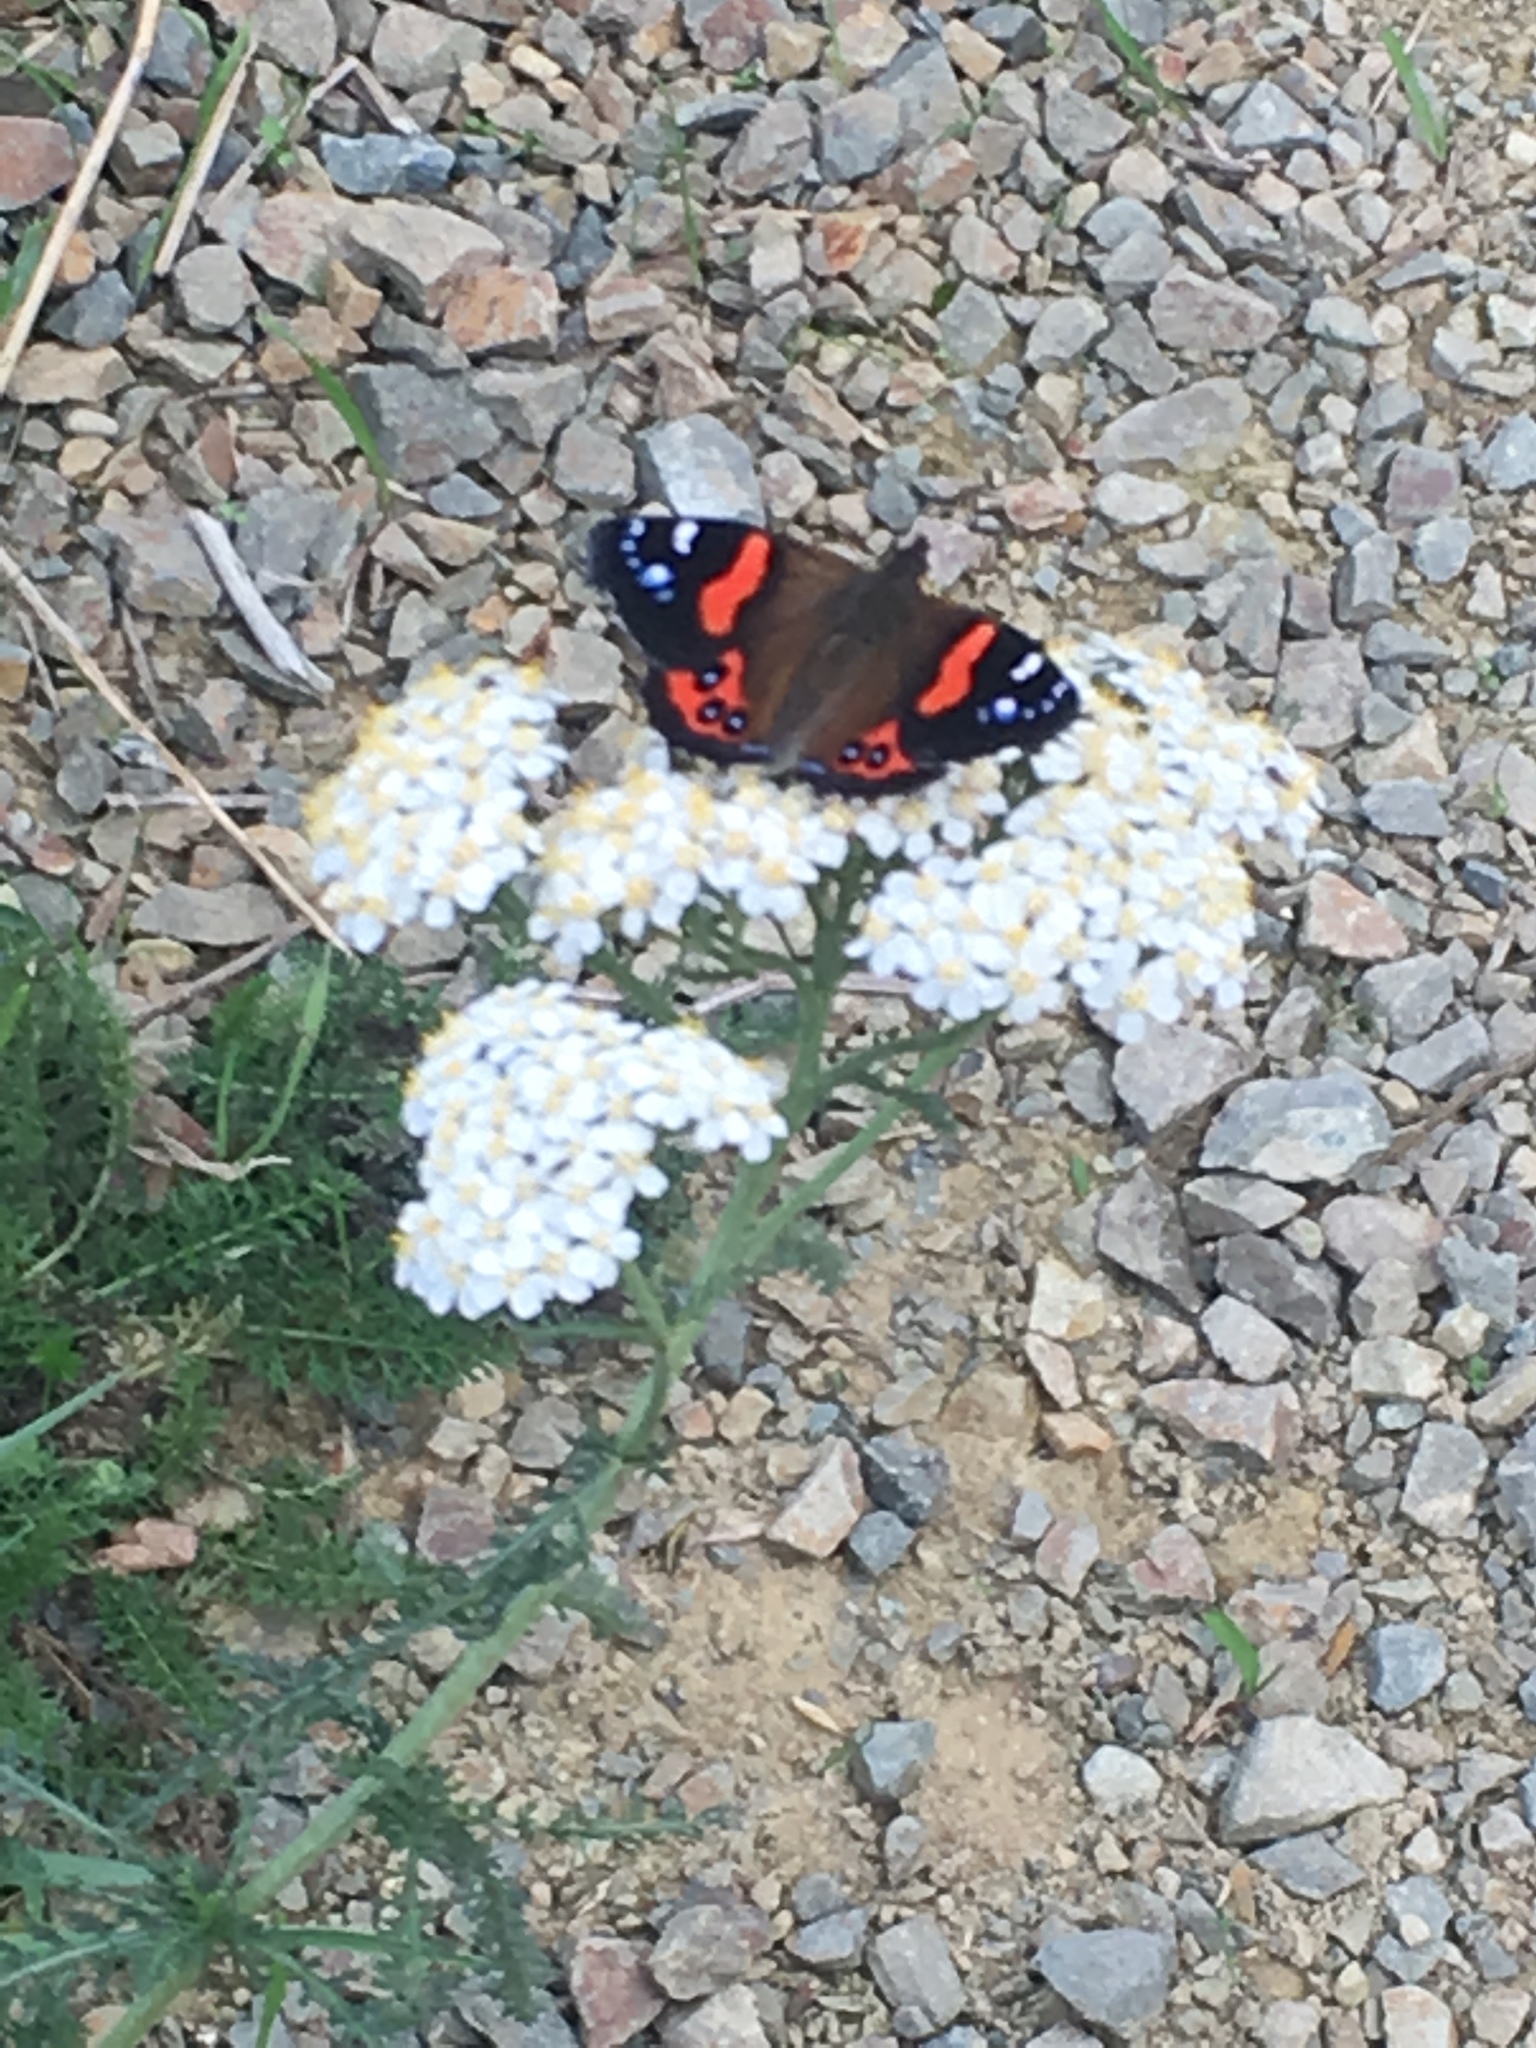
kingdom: Animalia
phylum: Arthropoda
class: Insecta
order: Lepidoptera
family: Nymphalidae
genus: Vanessa
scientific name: Vanessa gonerilla
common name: New zealand red admiral
